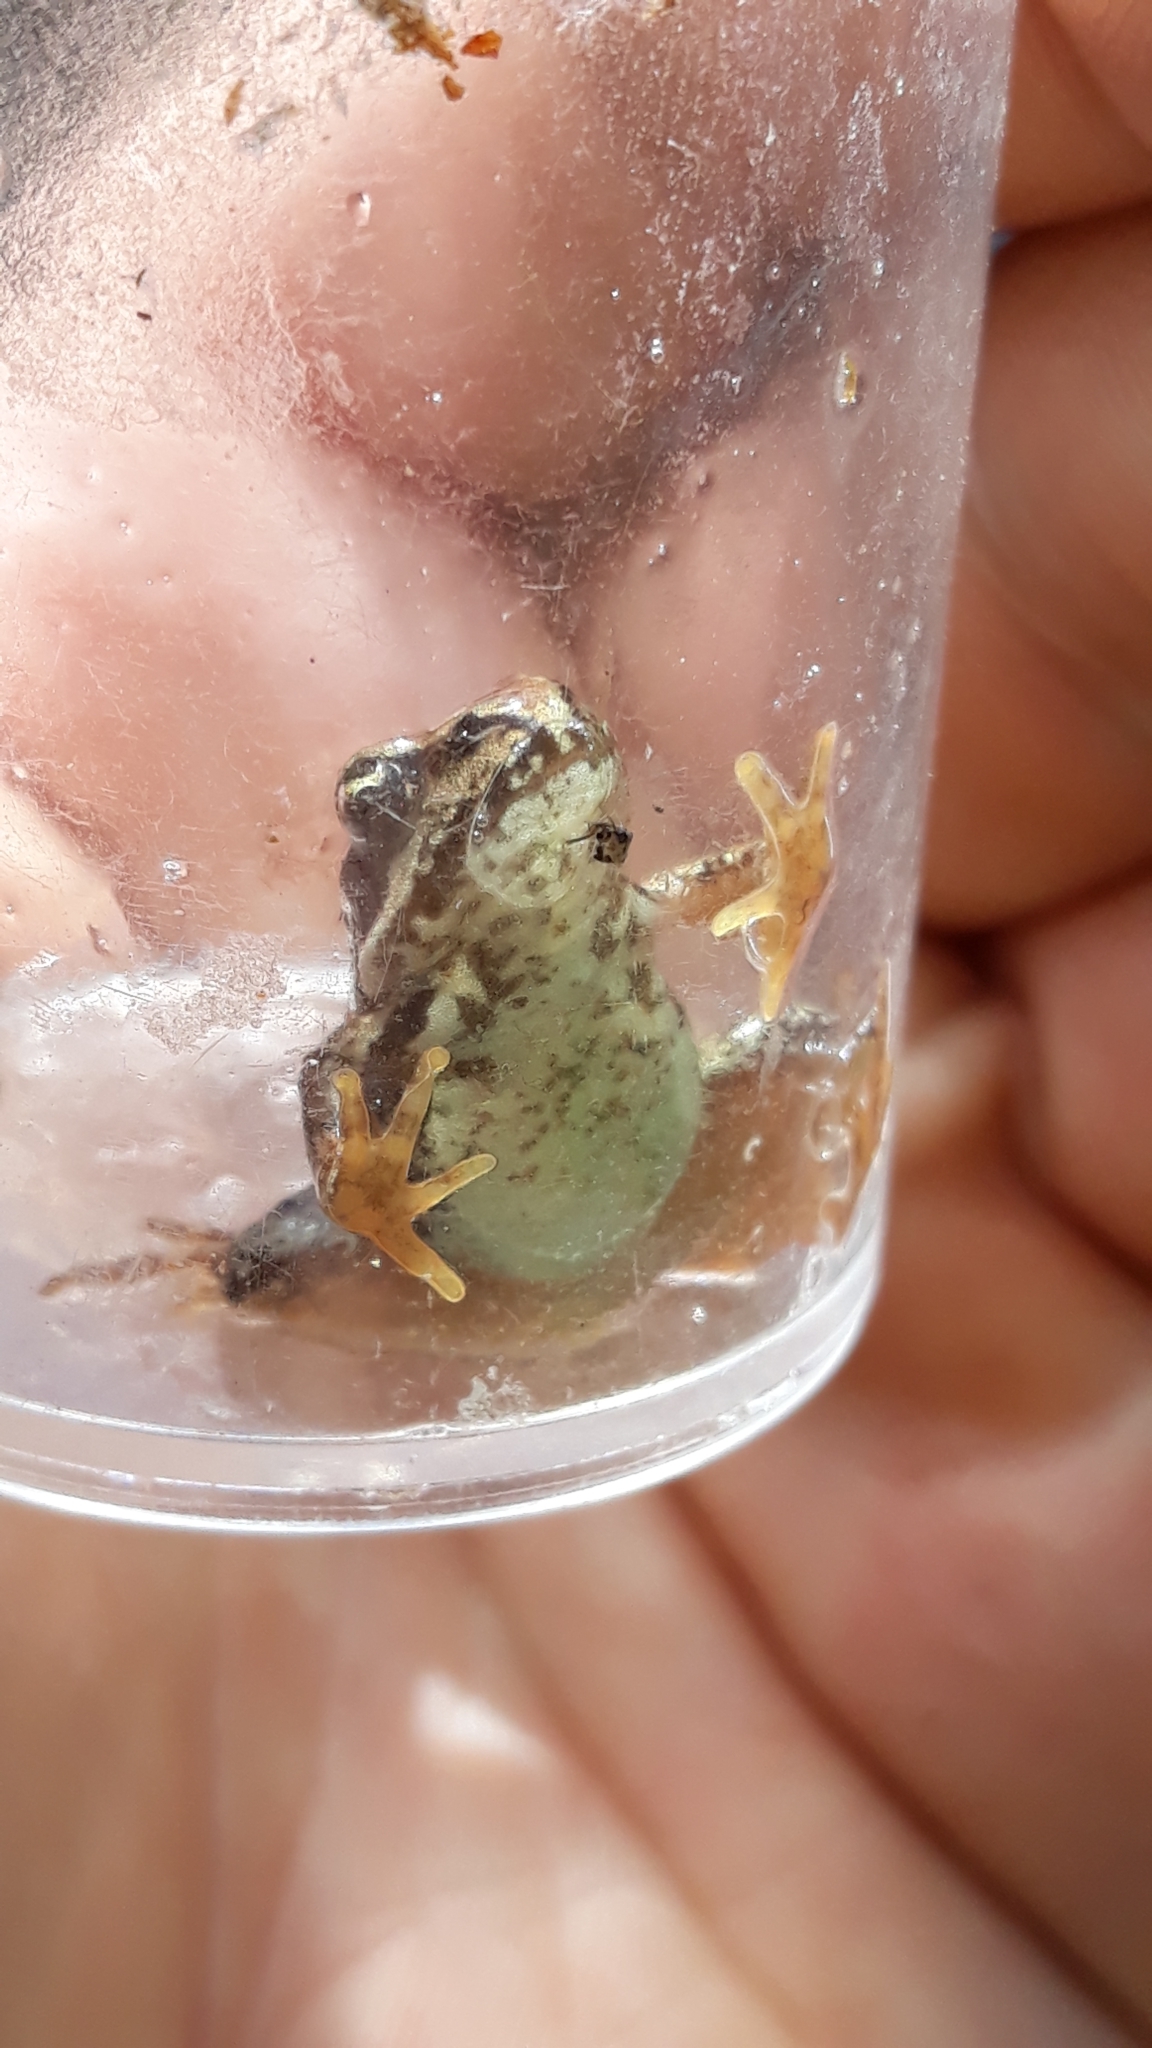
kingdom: Animalia
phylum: Chordata
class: Amphibia
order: Anura
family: Ranidae
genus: Rana
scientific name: Rana temporaria
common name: Common frog
